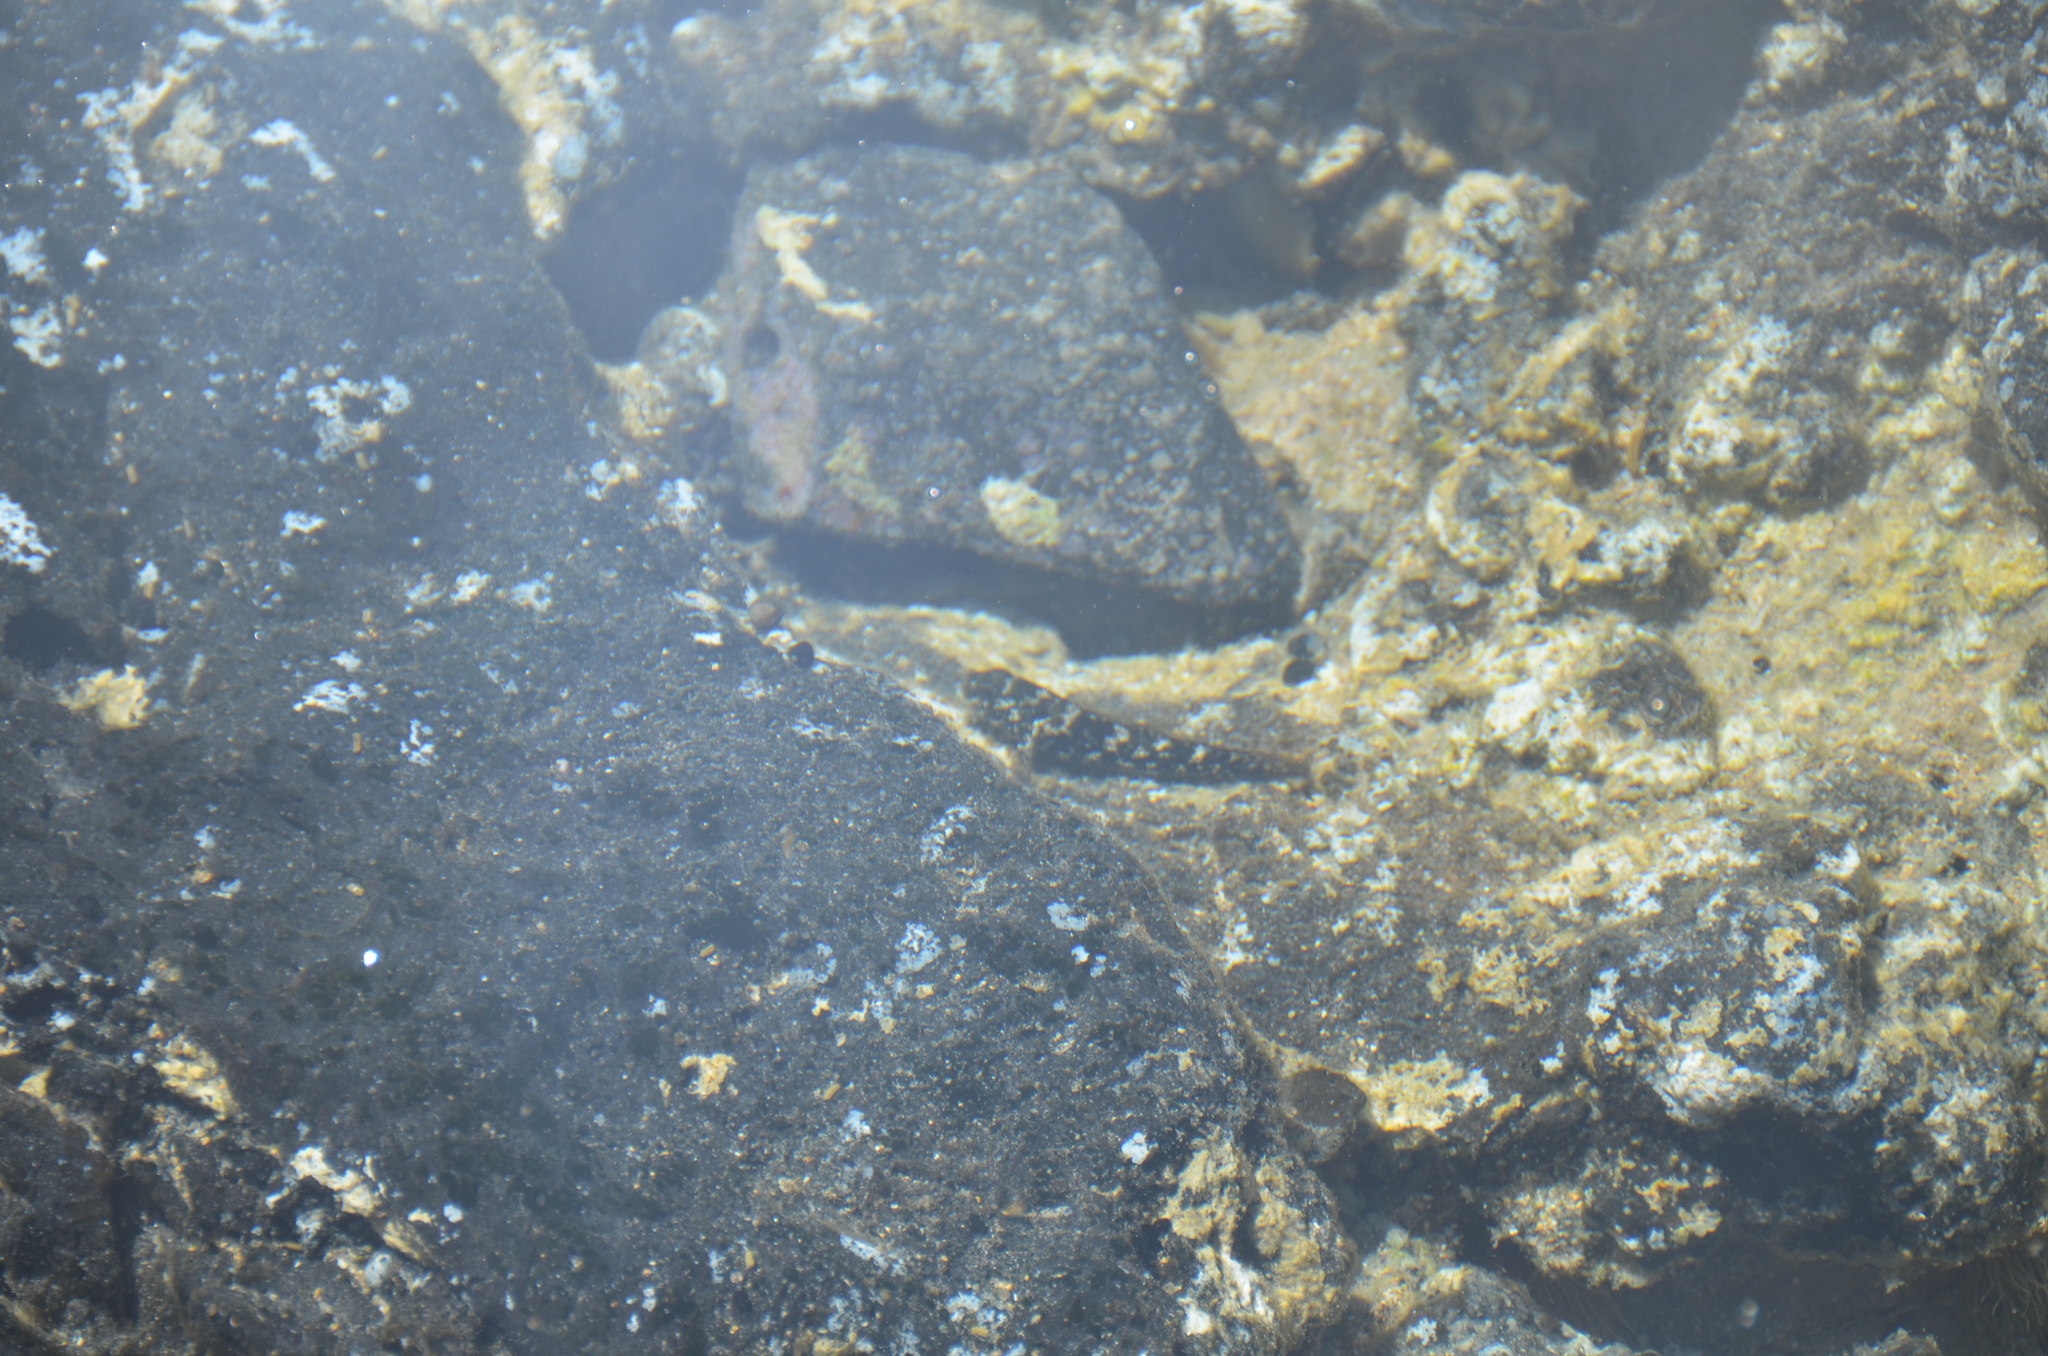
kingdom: Animalia
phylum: Chordata
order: Perciformes
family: Gobiidae
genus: Bathygobius
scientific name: Bathygobius
